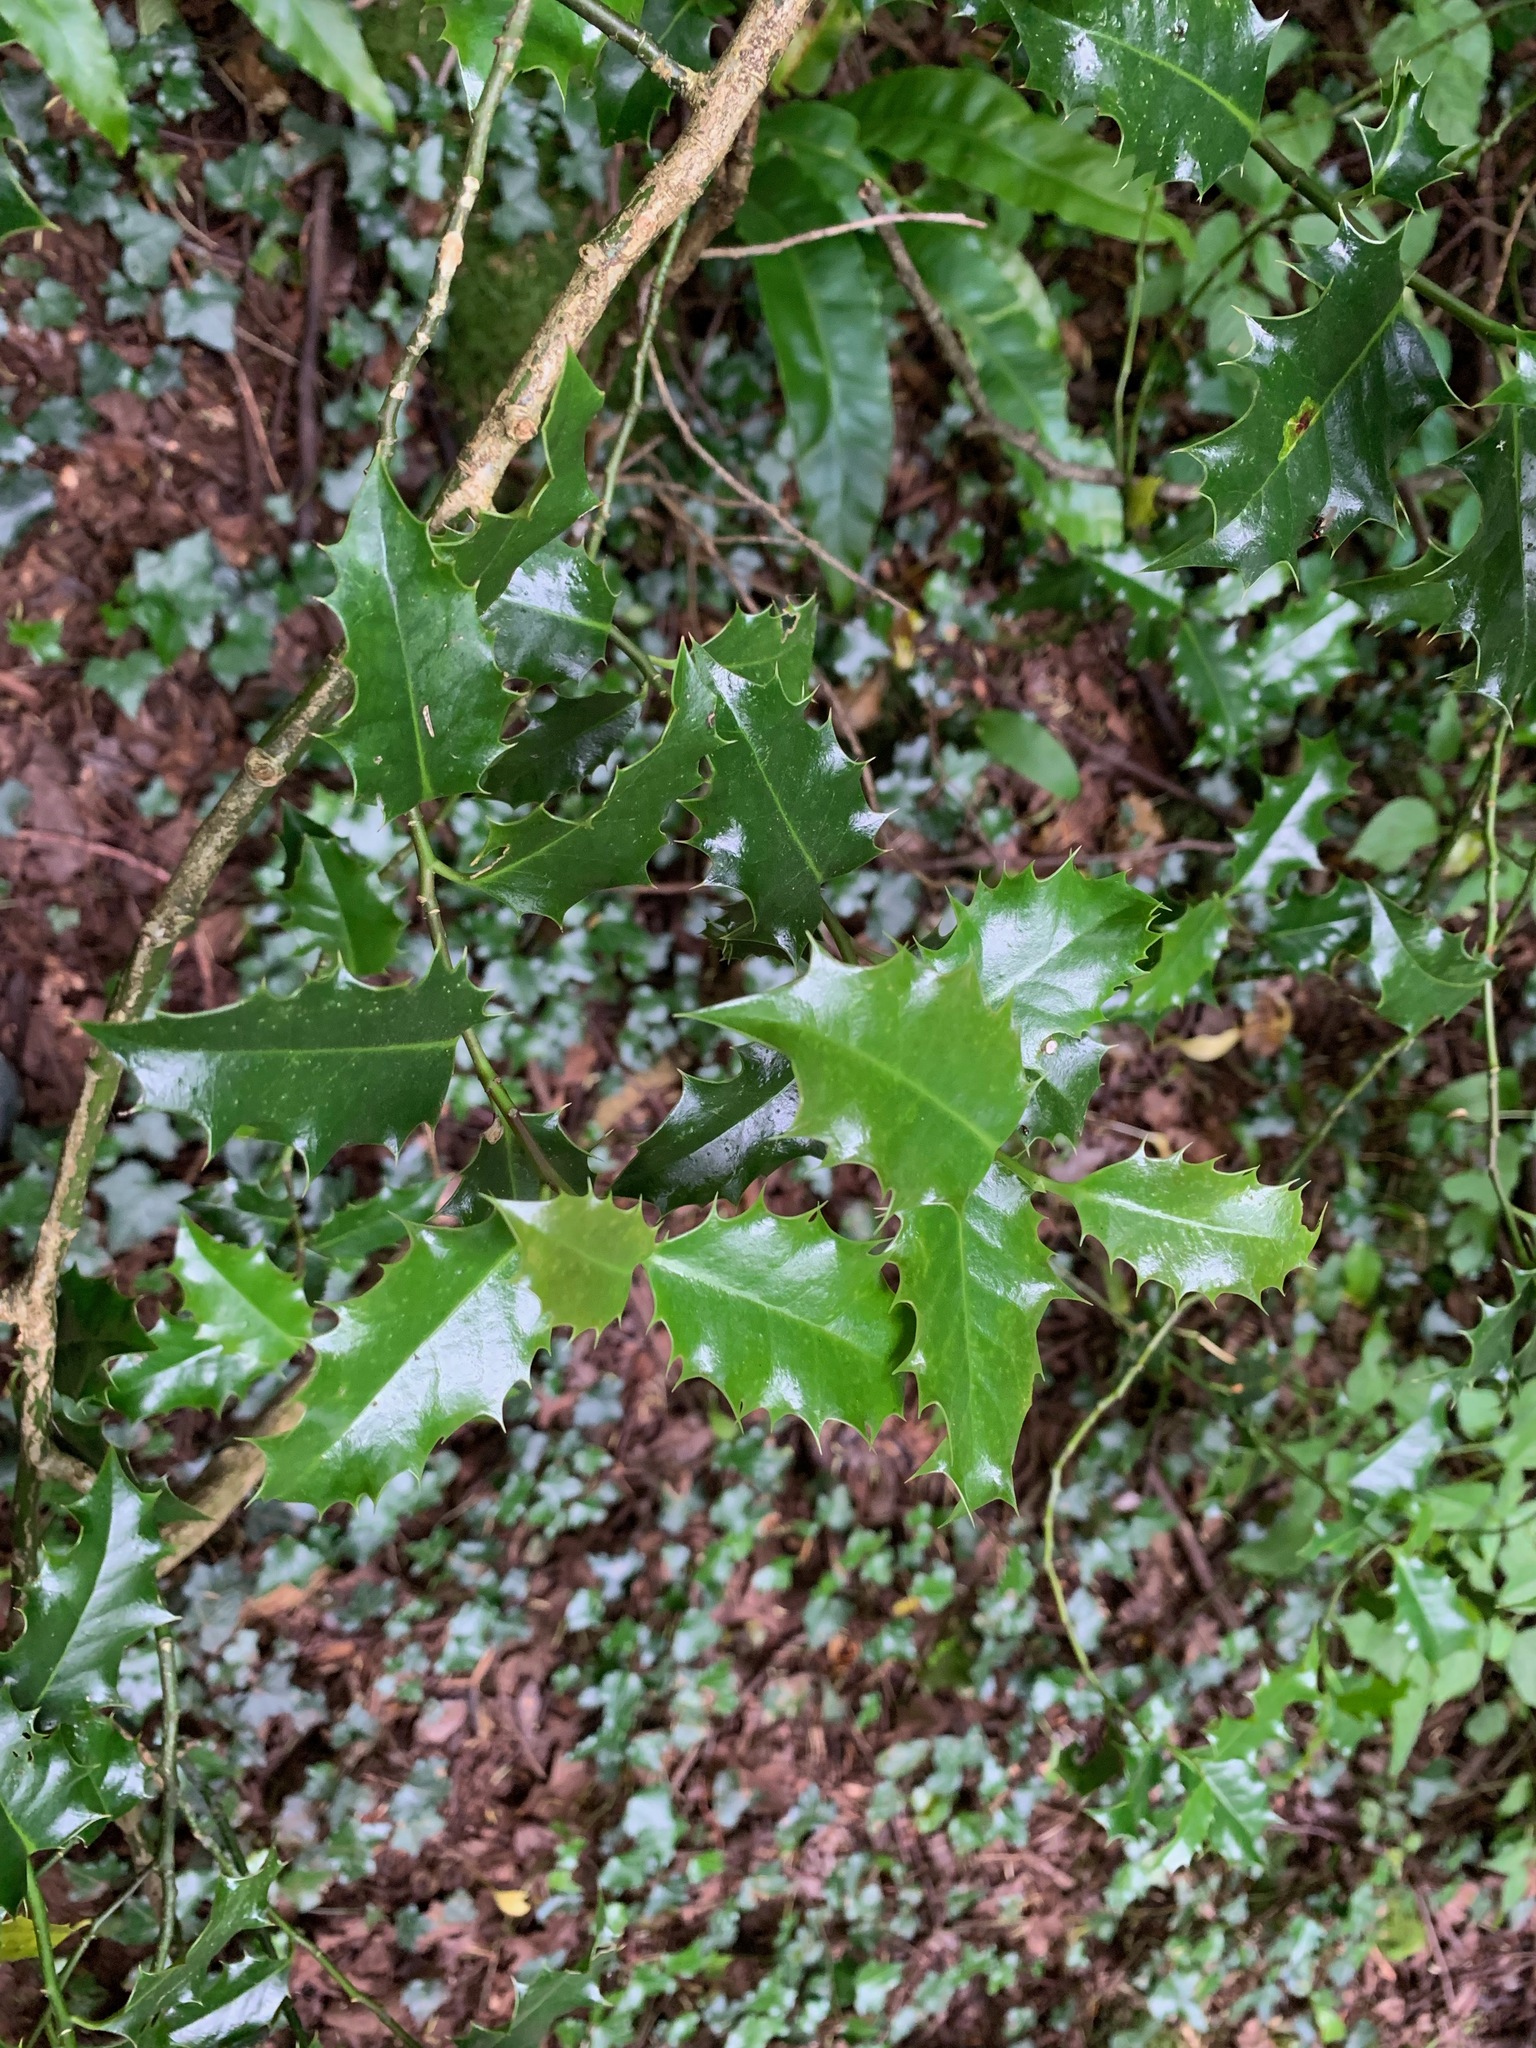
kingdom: Plantae
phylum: Tracheophyta
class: Magnoliopsida
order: Aquifoliales
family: Aquifoliaceae
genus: Ilex
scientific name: Ilex aquifolium
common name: English holly
